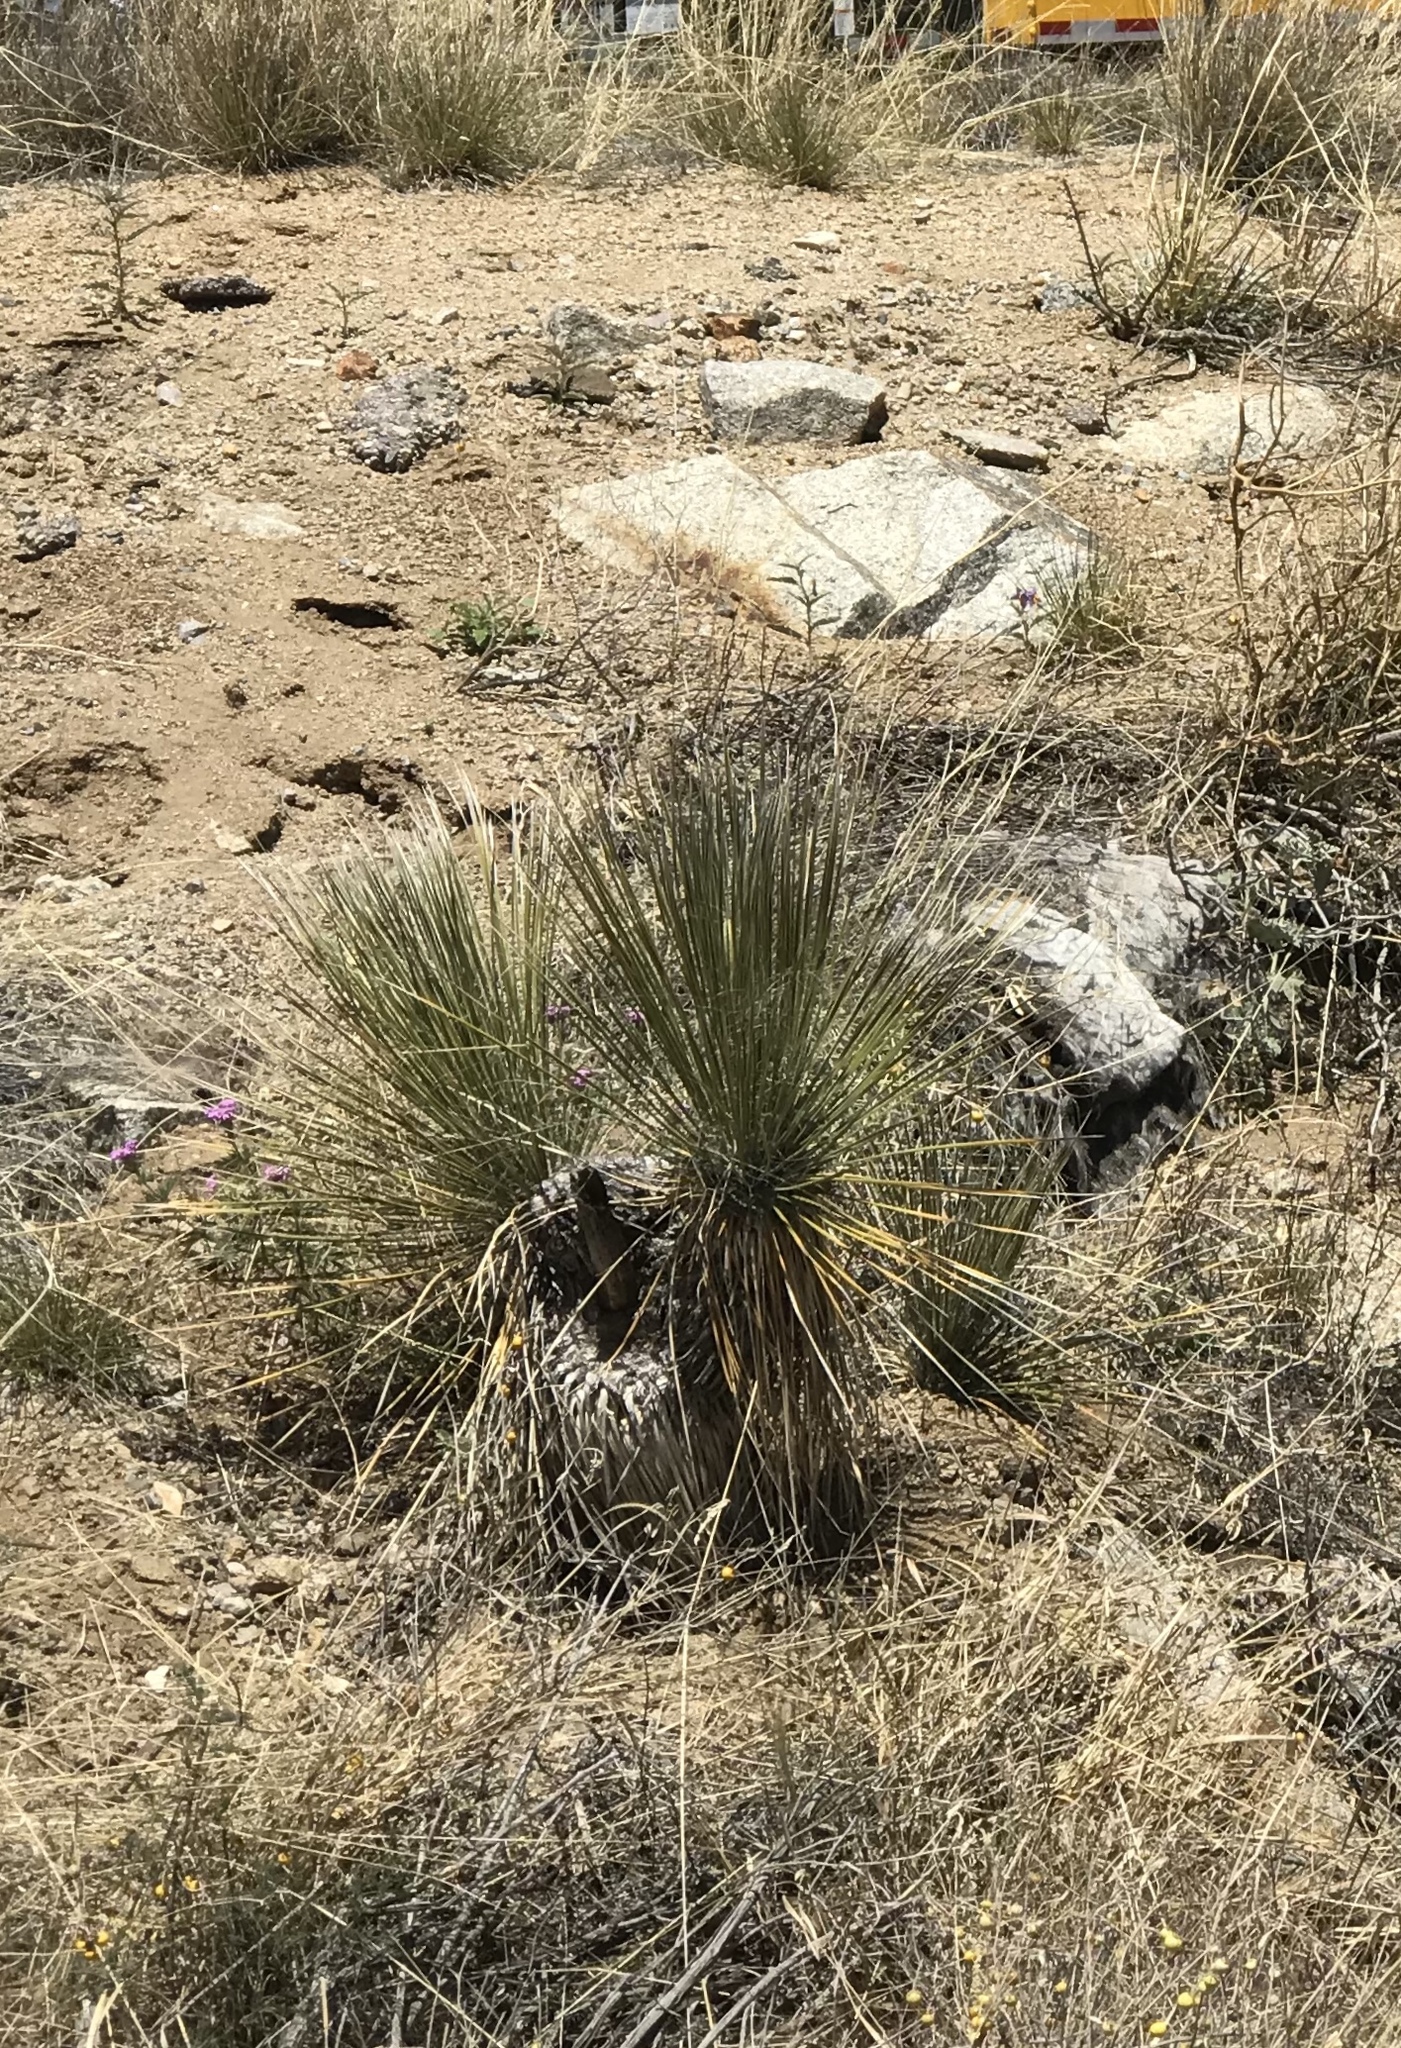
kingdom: Plantae
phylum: Tracheophyta
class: Liliopsida
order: Asparagales
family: Asparagaceae
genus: Yucca
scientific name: Yucca elata
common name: Palmella
